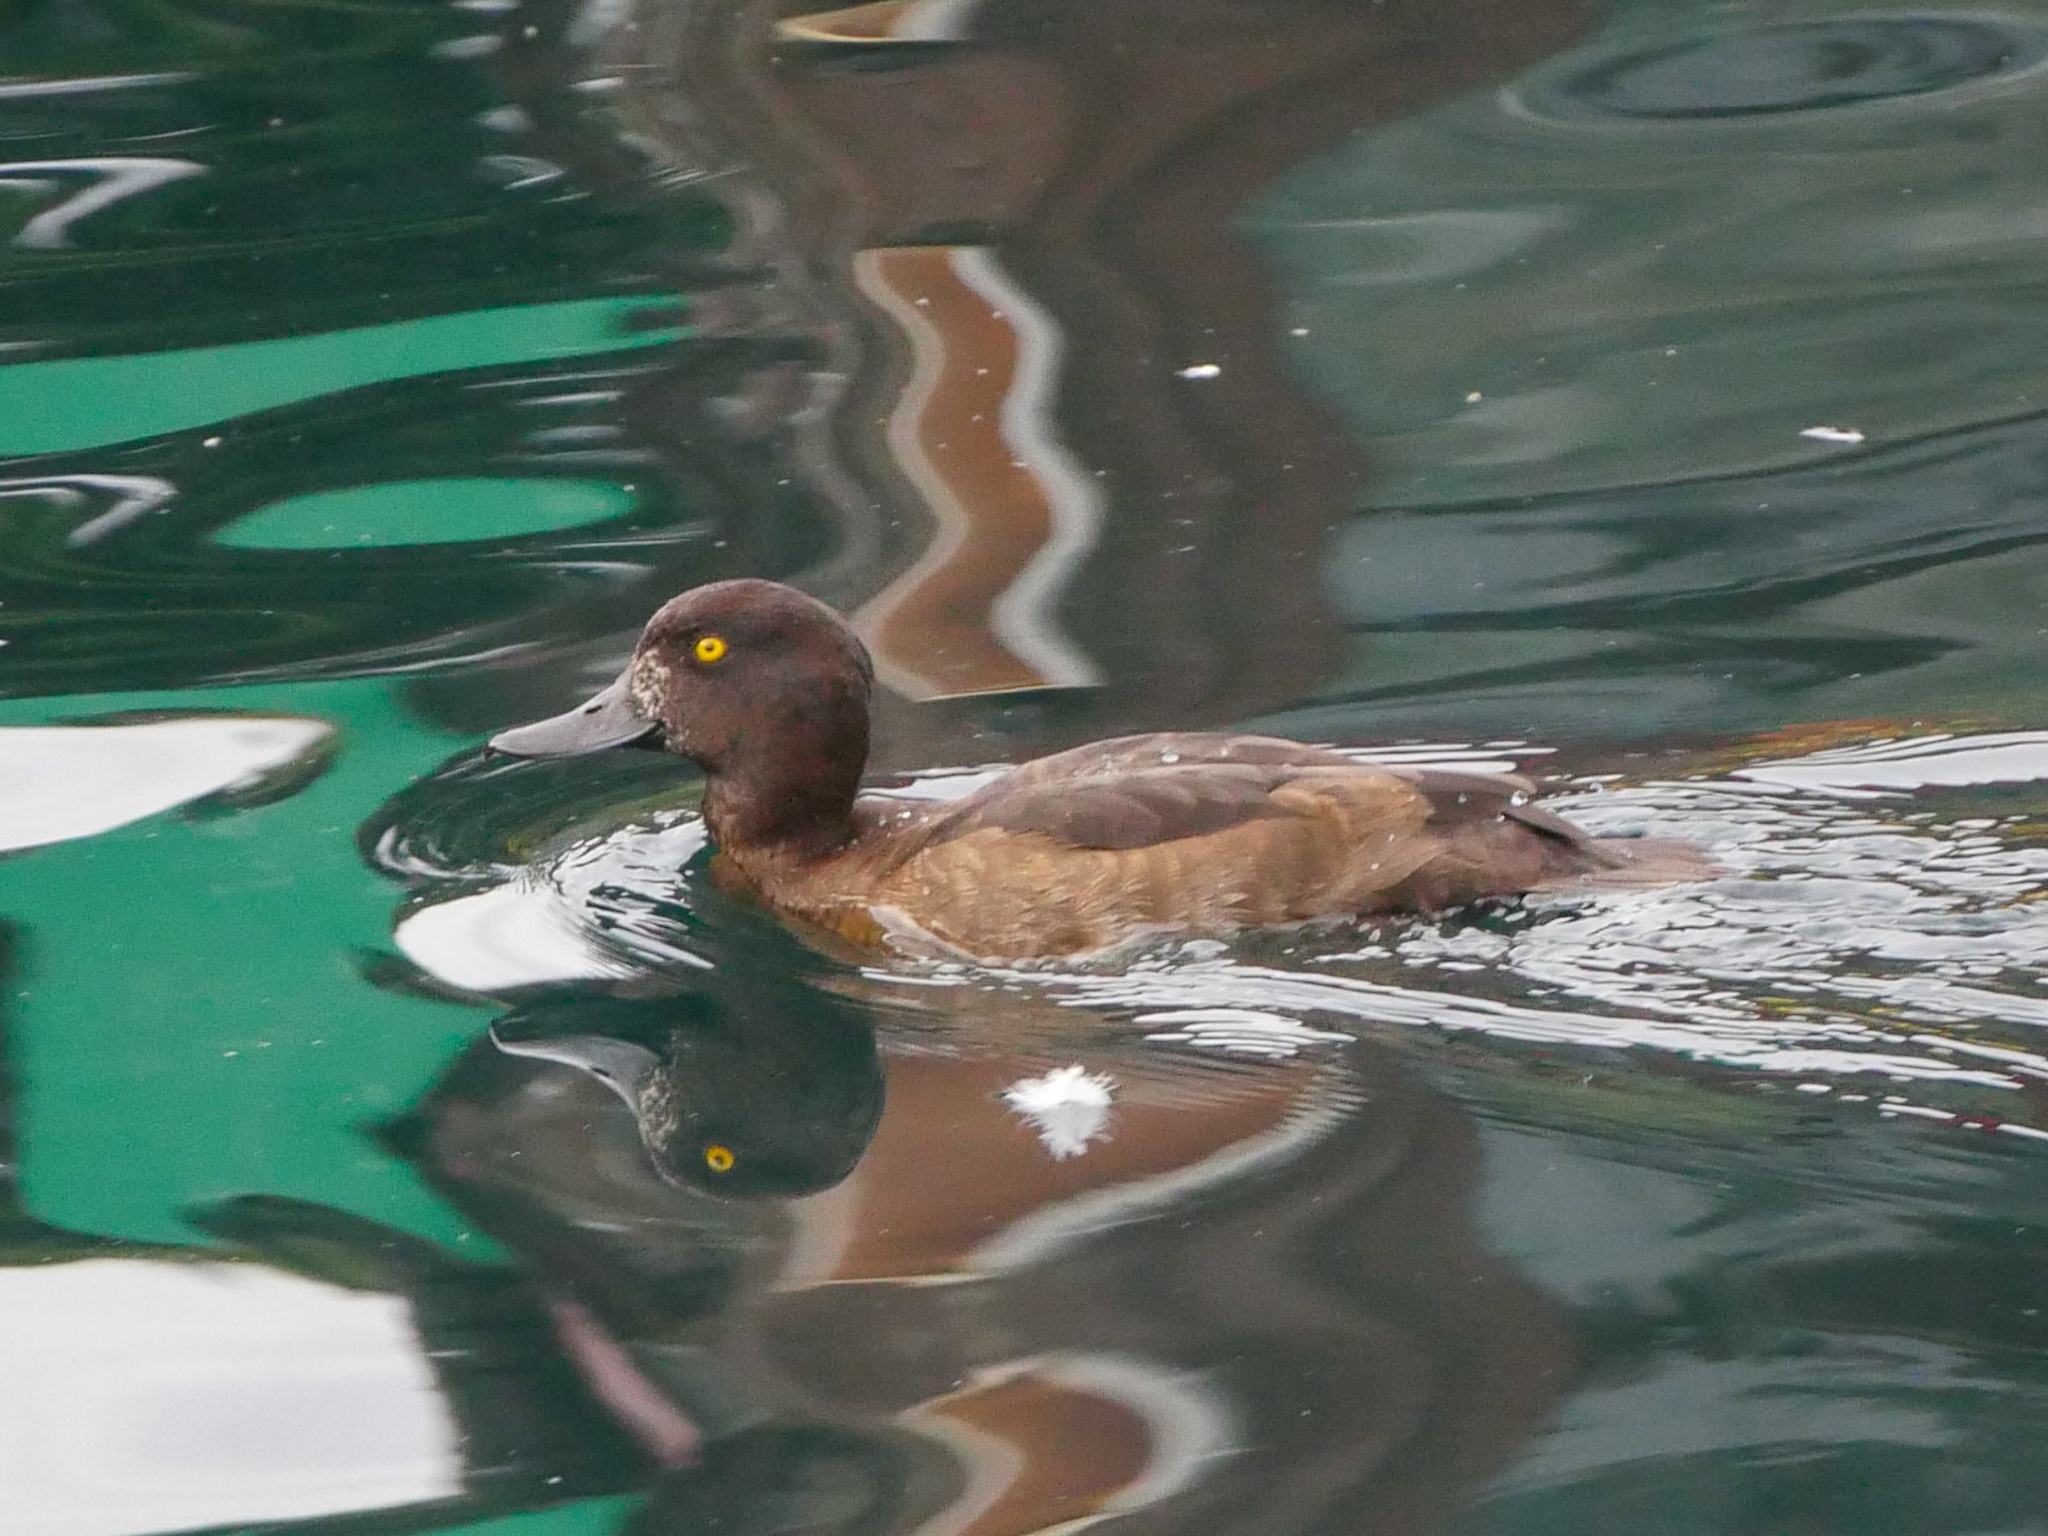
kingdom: Animalia
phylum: Chordata
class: Aves
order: Anseriformes
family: Anatidae
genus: Aythya
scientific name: Aythya fuligula
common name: Tufted duck
